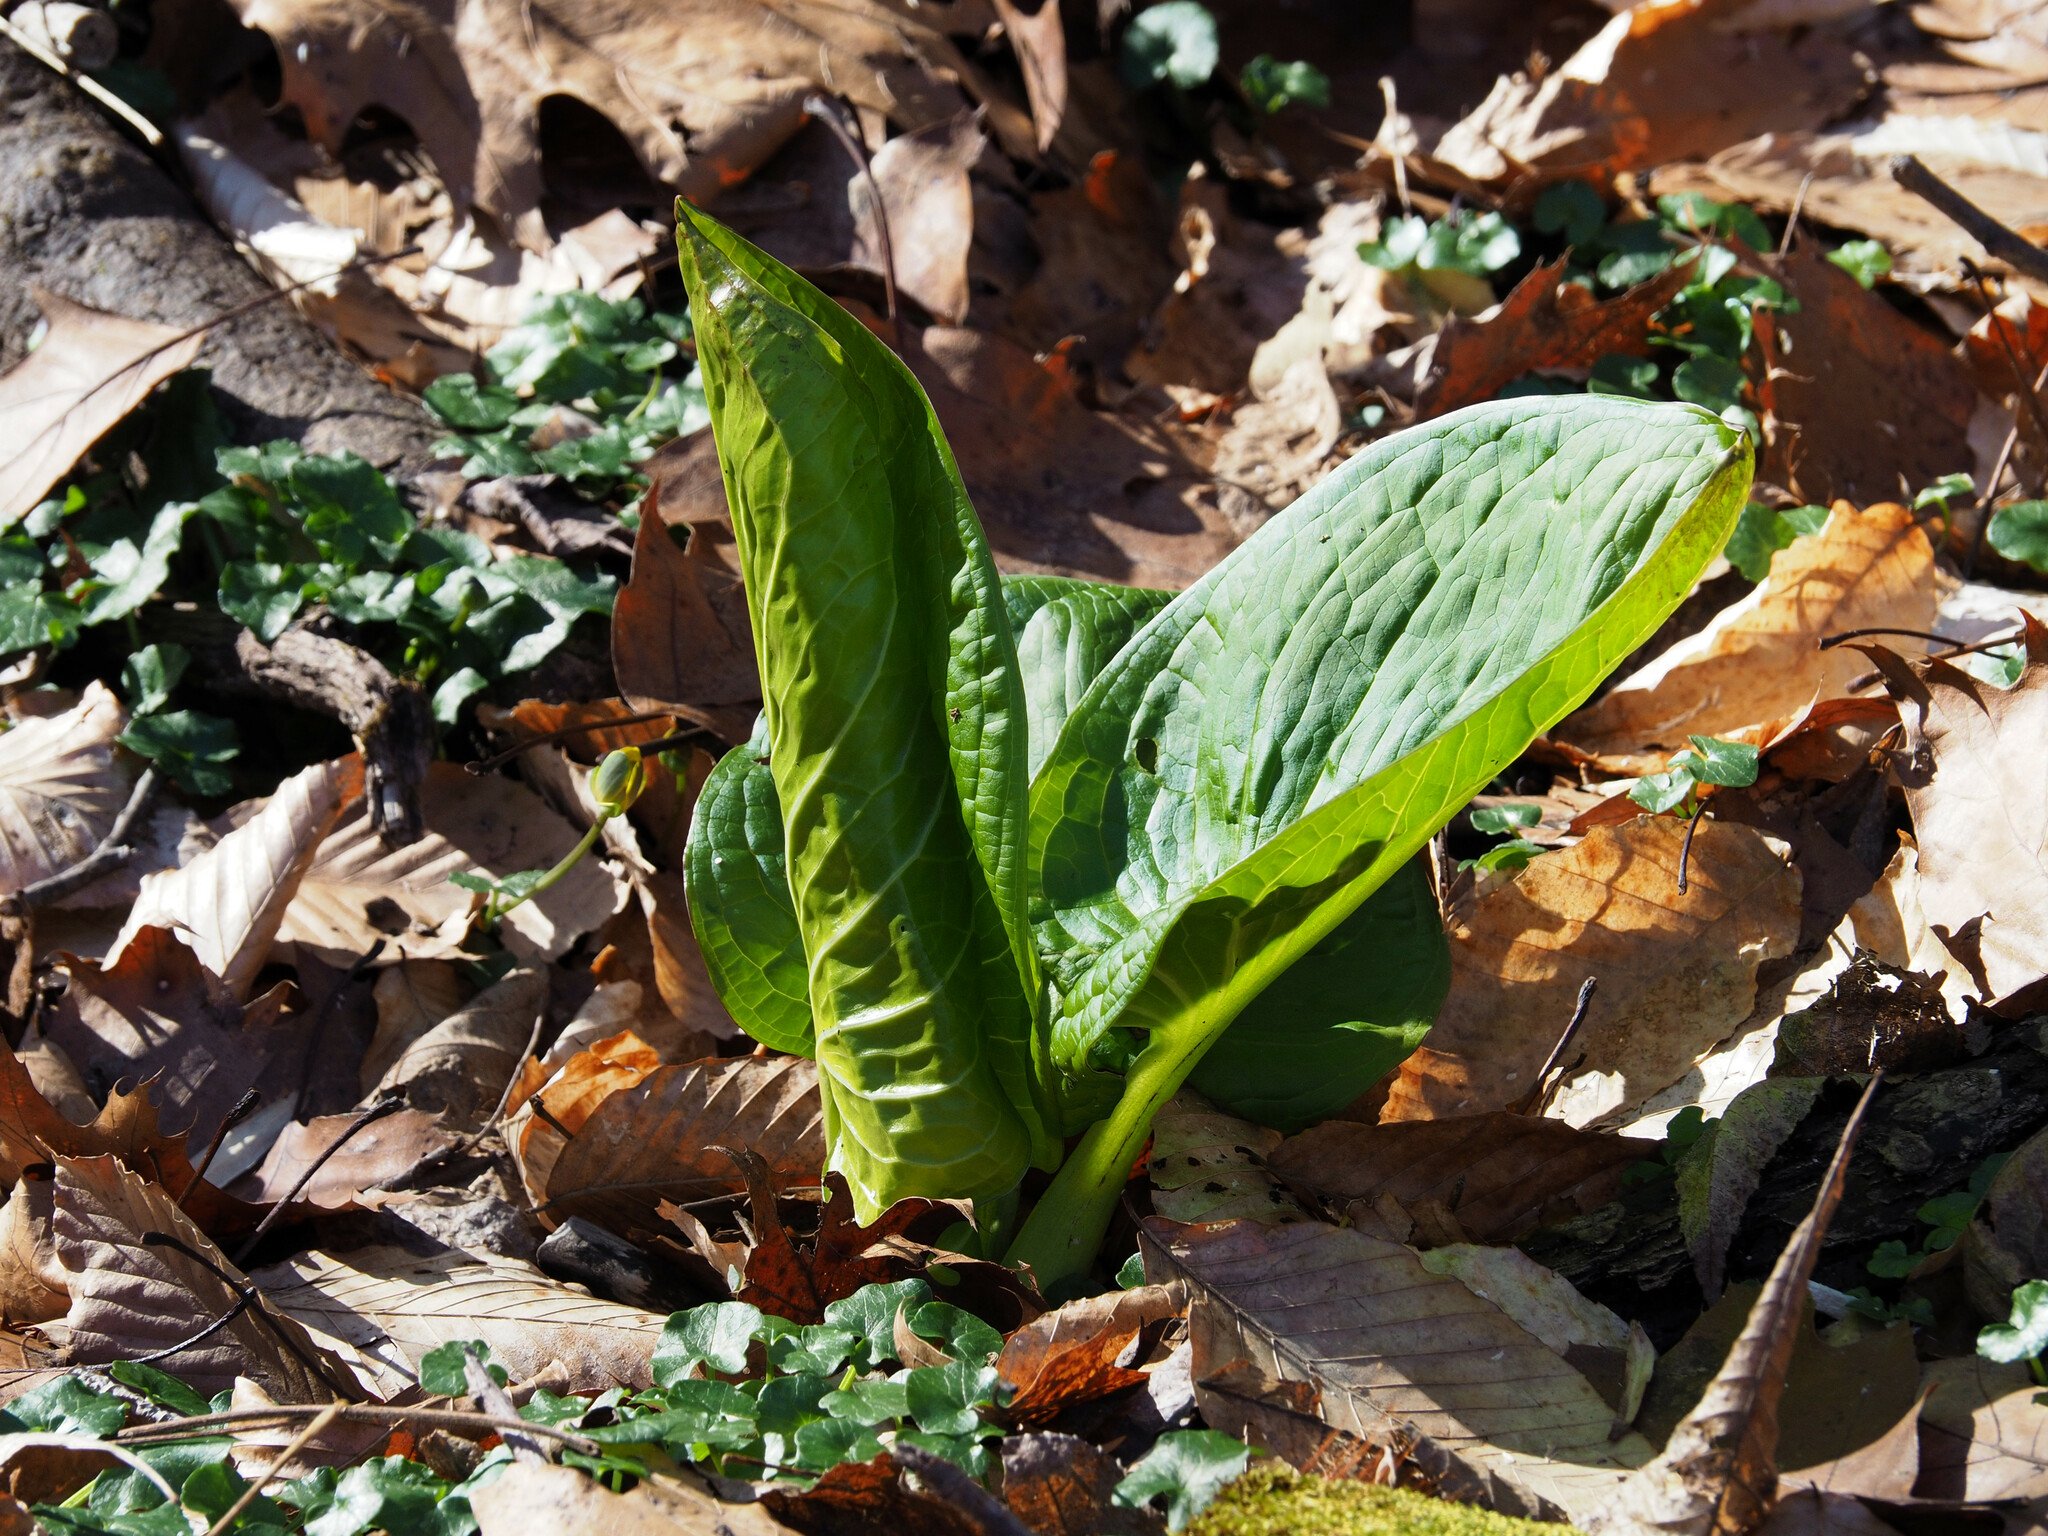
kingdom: Plantae
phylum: Tracheophyta
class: Liliopsida
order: Alismatales
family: Araceae
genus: Symplocarpus
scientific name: Symplocarpus foetidus
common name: Eastern skunk cabbage
